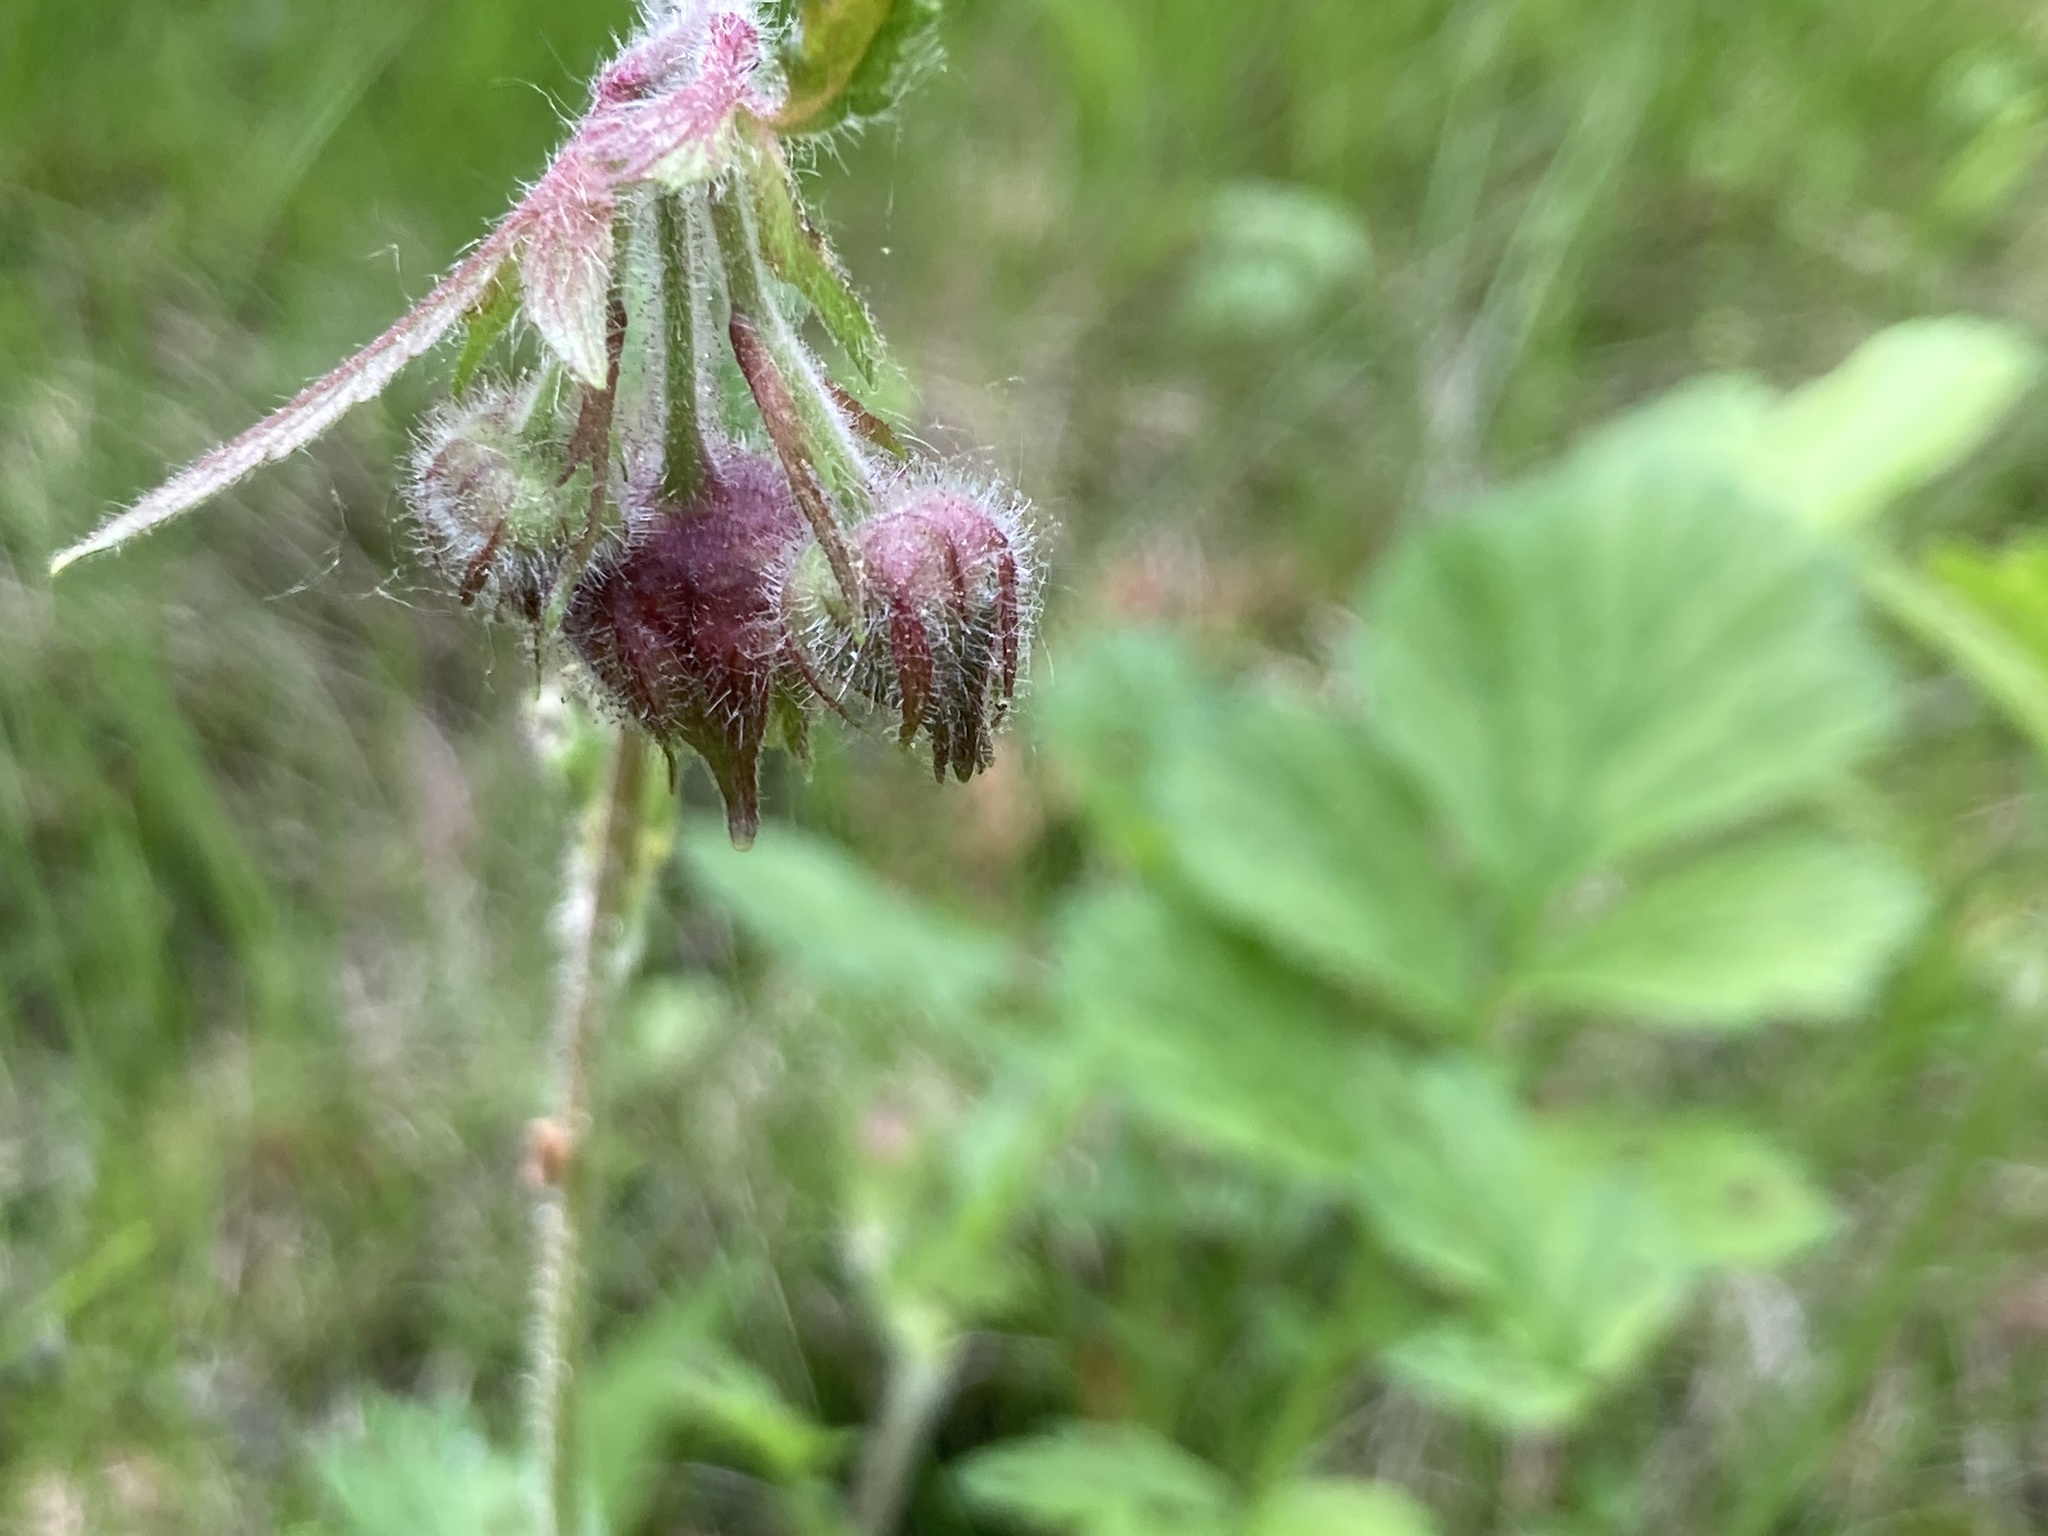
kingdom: Plantae
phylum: Tracheophyta
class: Magnoliopsida
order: Rosales
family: Rosaceae
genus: Geum
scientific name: Geum rivale
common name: Water avens
